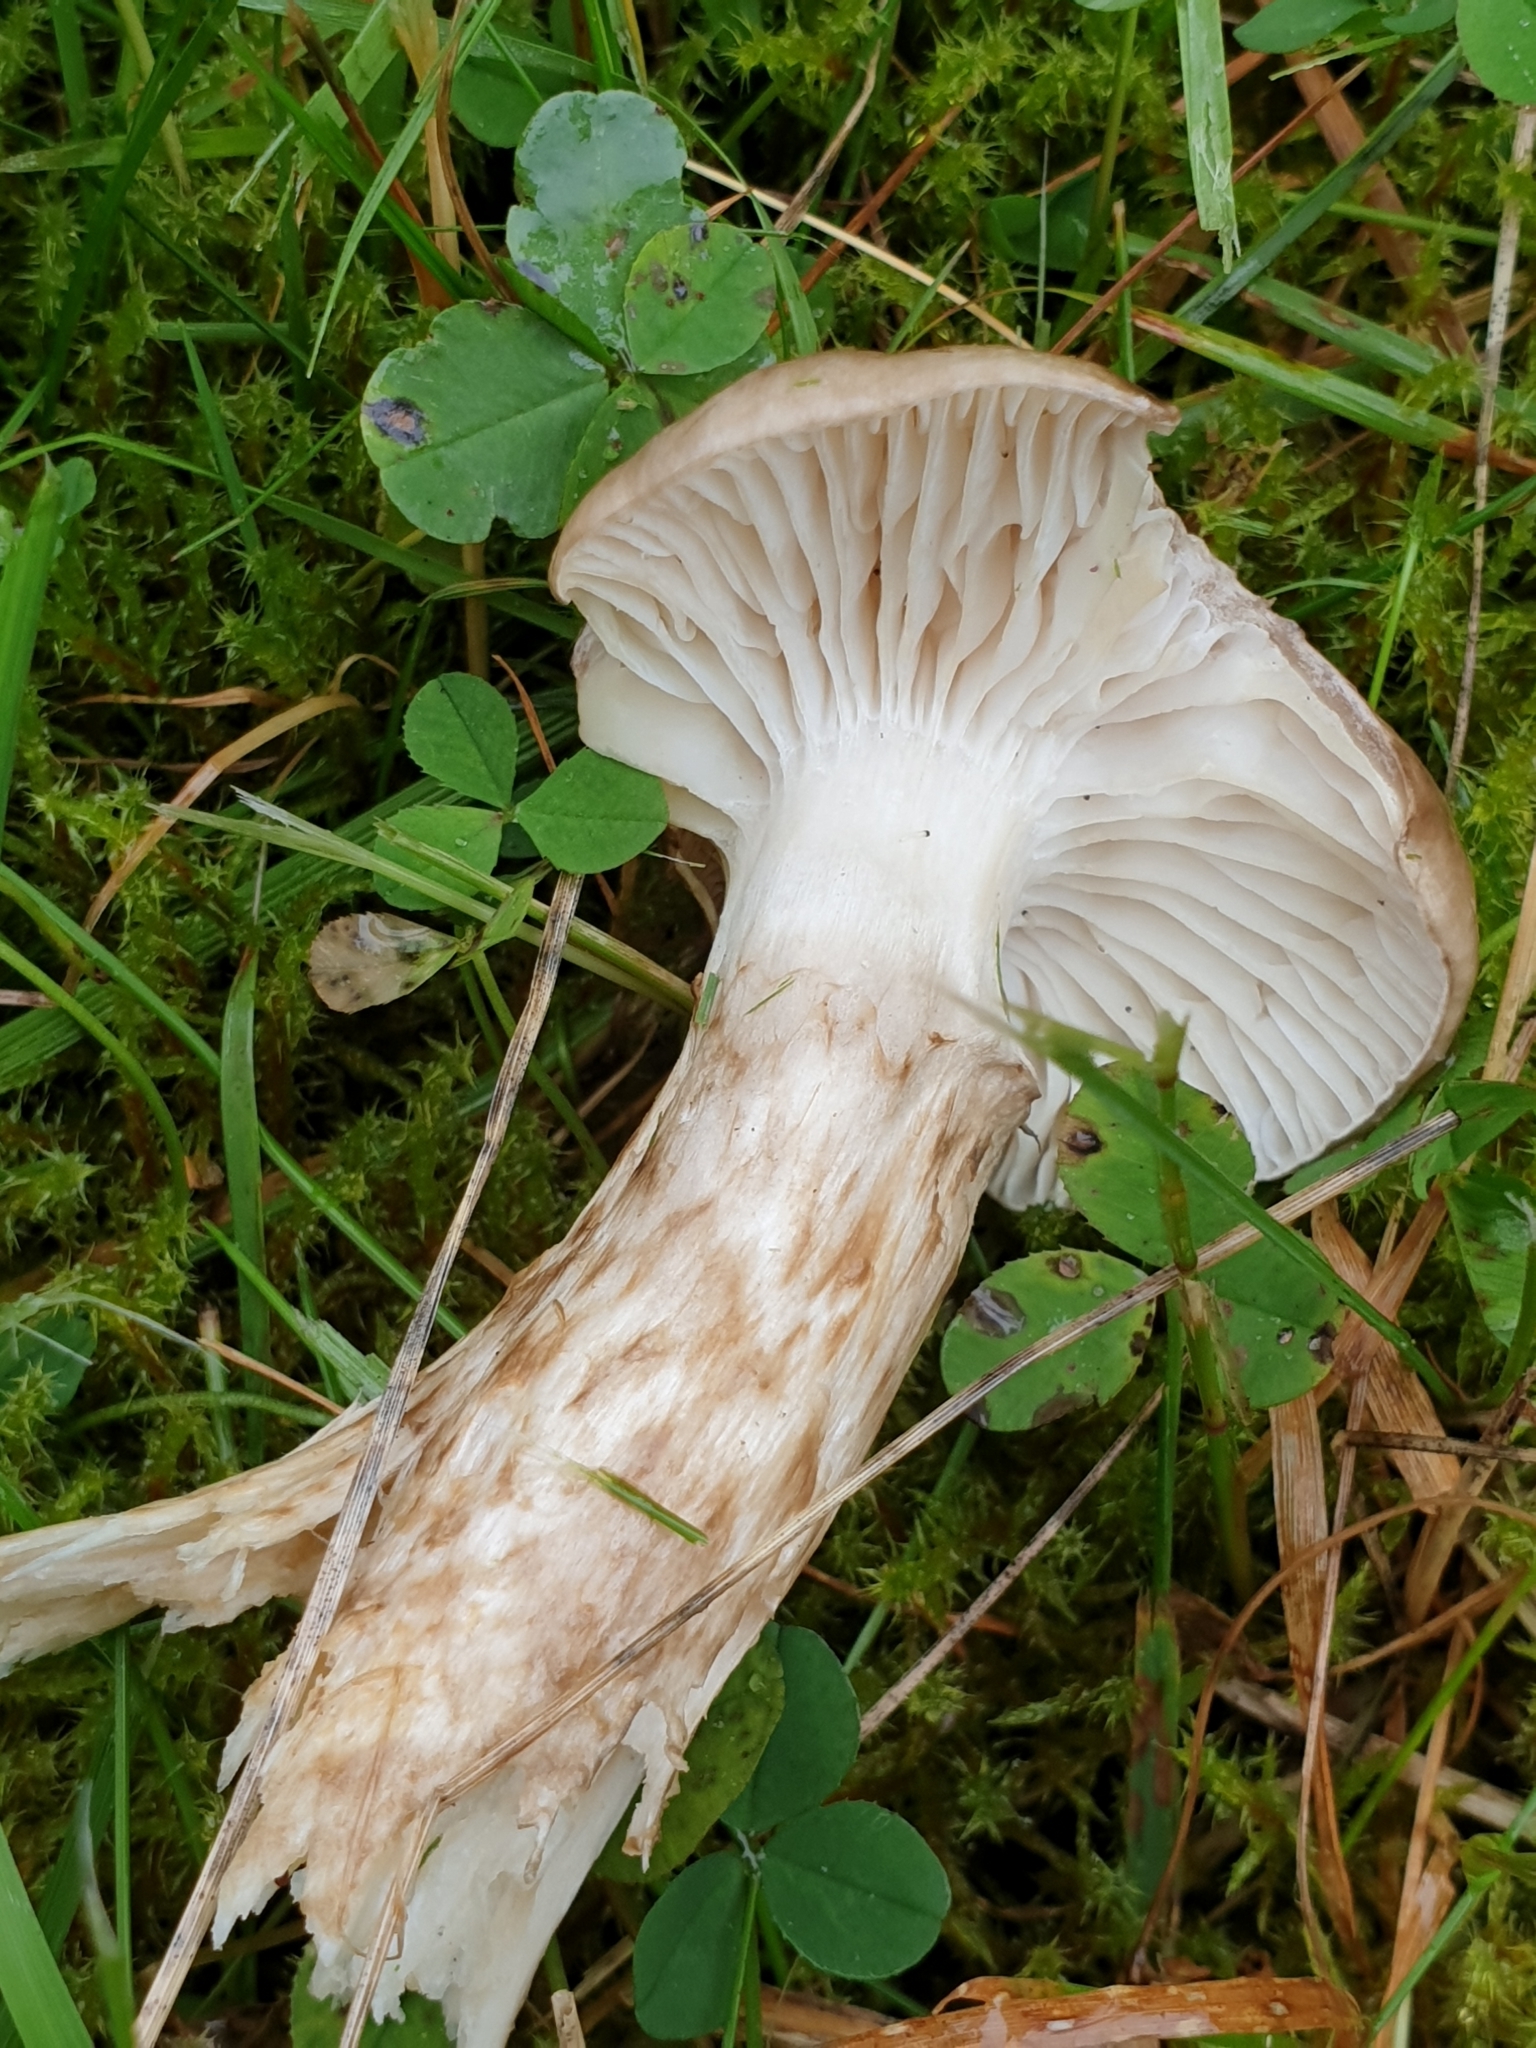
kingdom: Fungi
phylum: Basidiomycota
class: Agaricomycetes
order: Agaricales
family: Hygrophoraceae
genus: Hygrophorus
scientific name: Hygrophorus olivaceoalbus
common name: Olive wax cap
